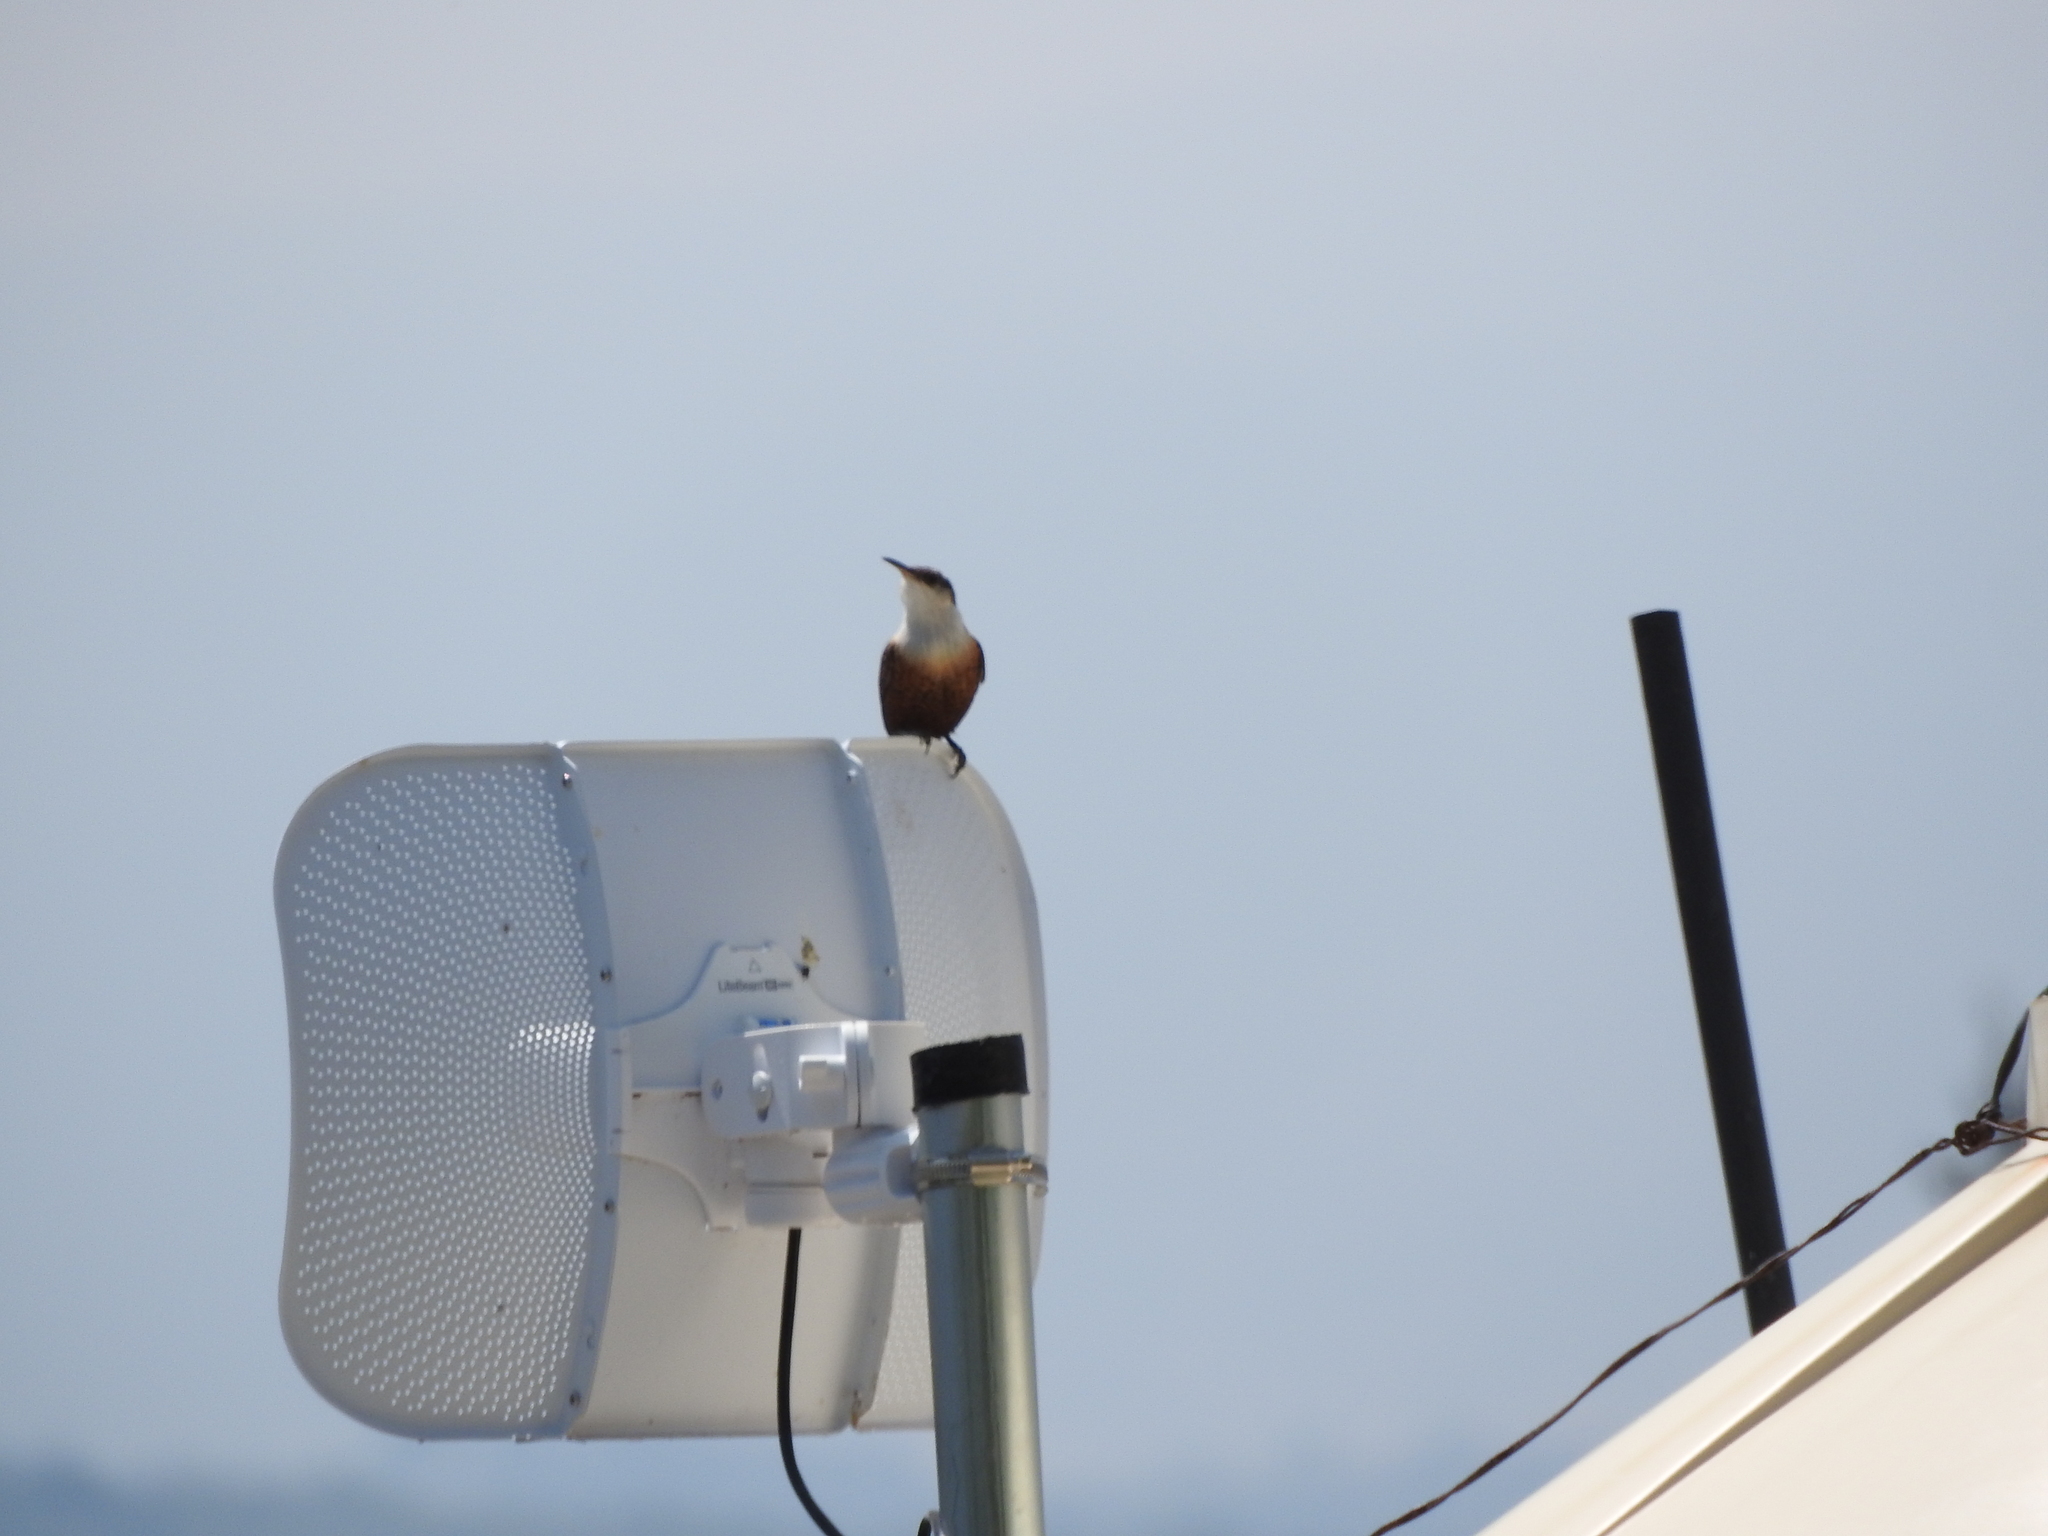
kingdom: Animalia
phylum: Chordata
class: Aves
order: Passeriformes
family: Troglodytidae
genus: Catherpes
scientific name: Catherpes mexicanus
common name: Canyon wren
